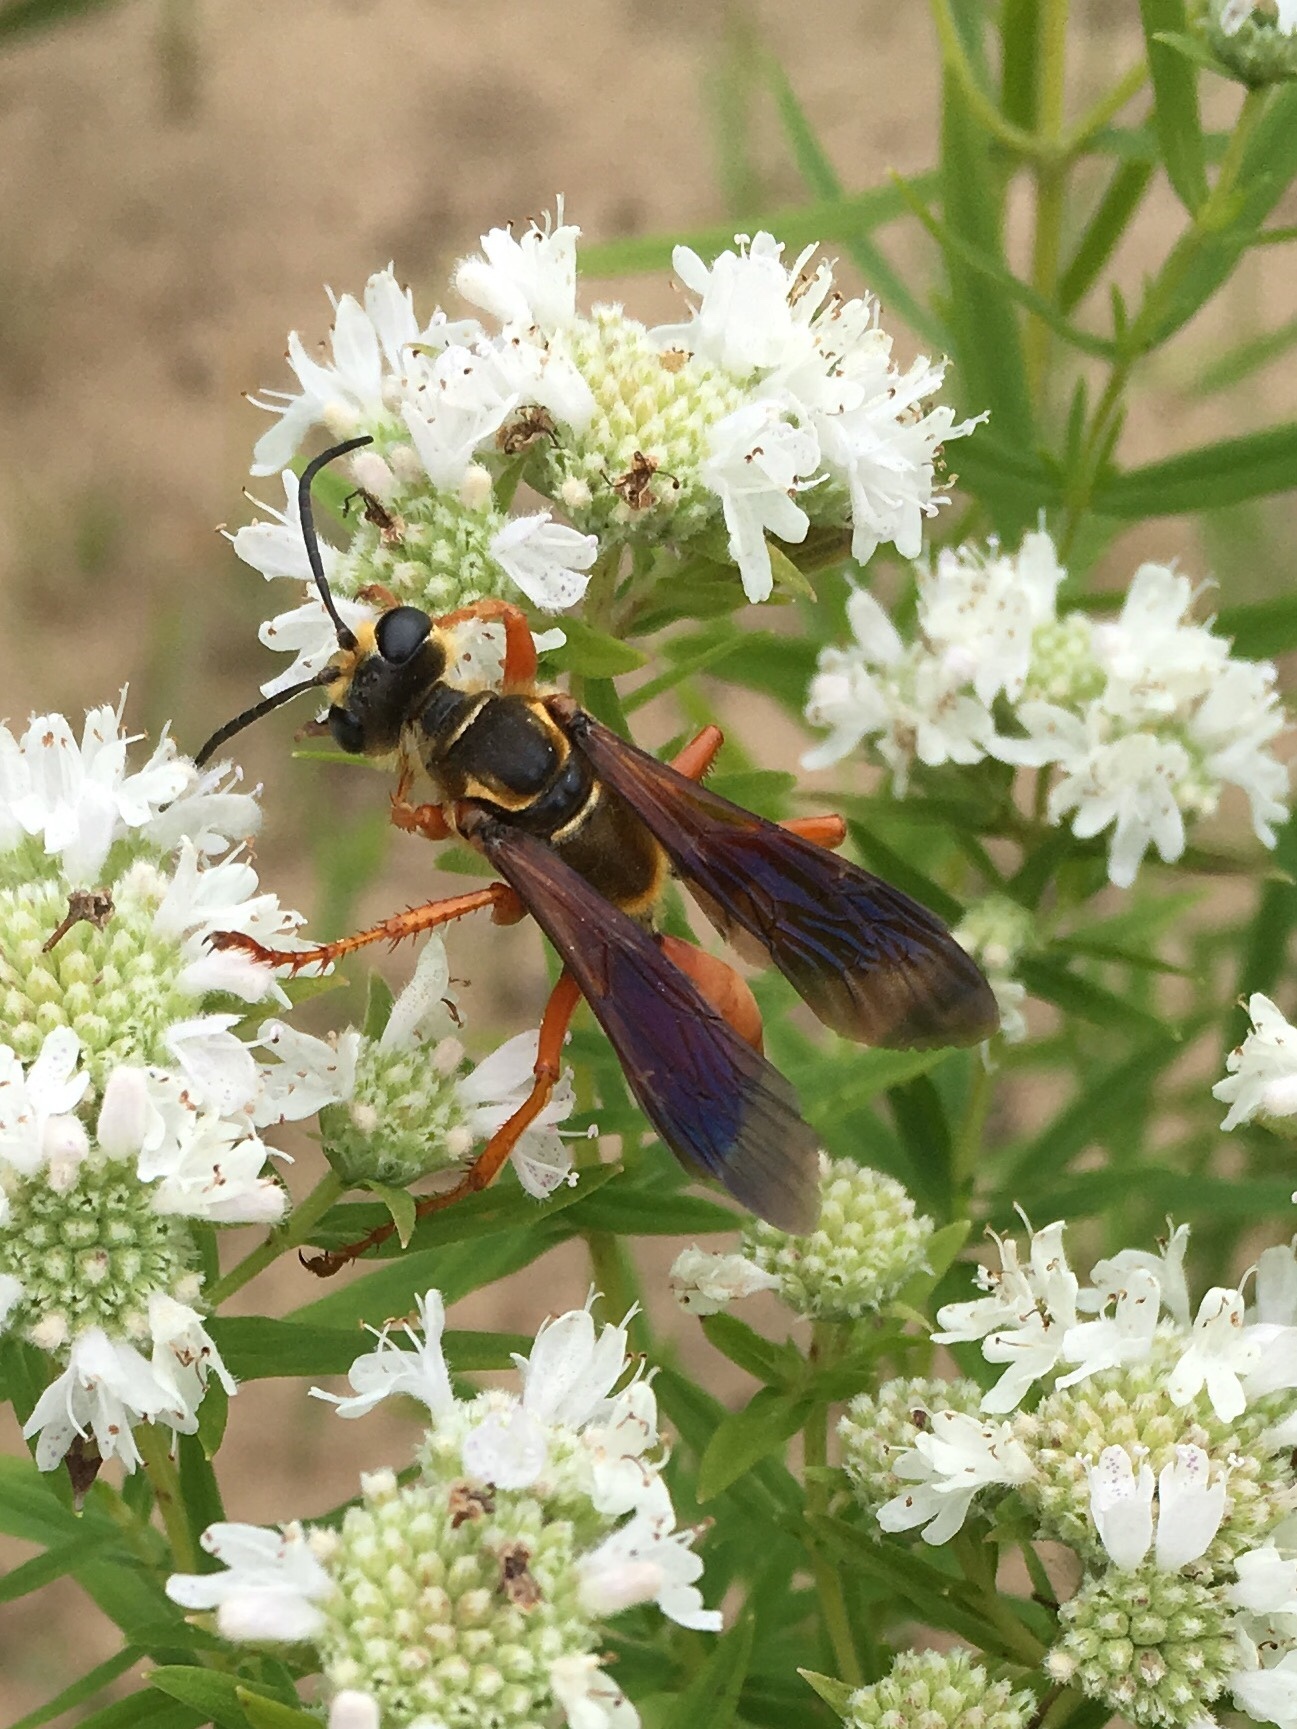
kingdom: Animalia
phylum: Arthropoda
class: Insecta
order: Hymenoptera
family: Sphecidae
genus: Sphex
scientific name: Sphex ichneumoneus
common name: Great golden digger wasp
